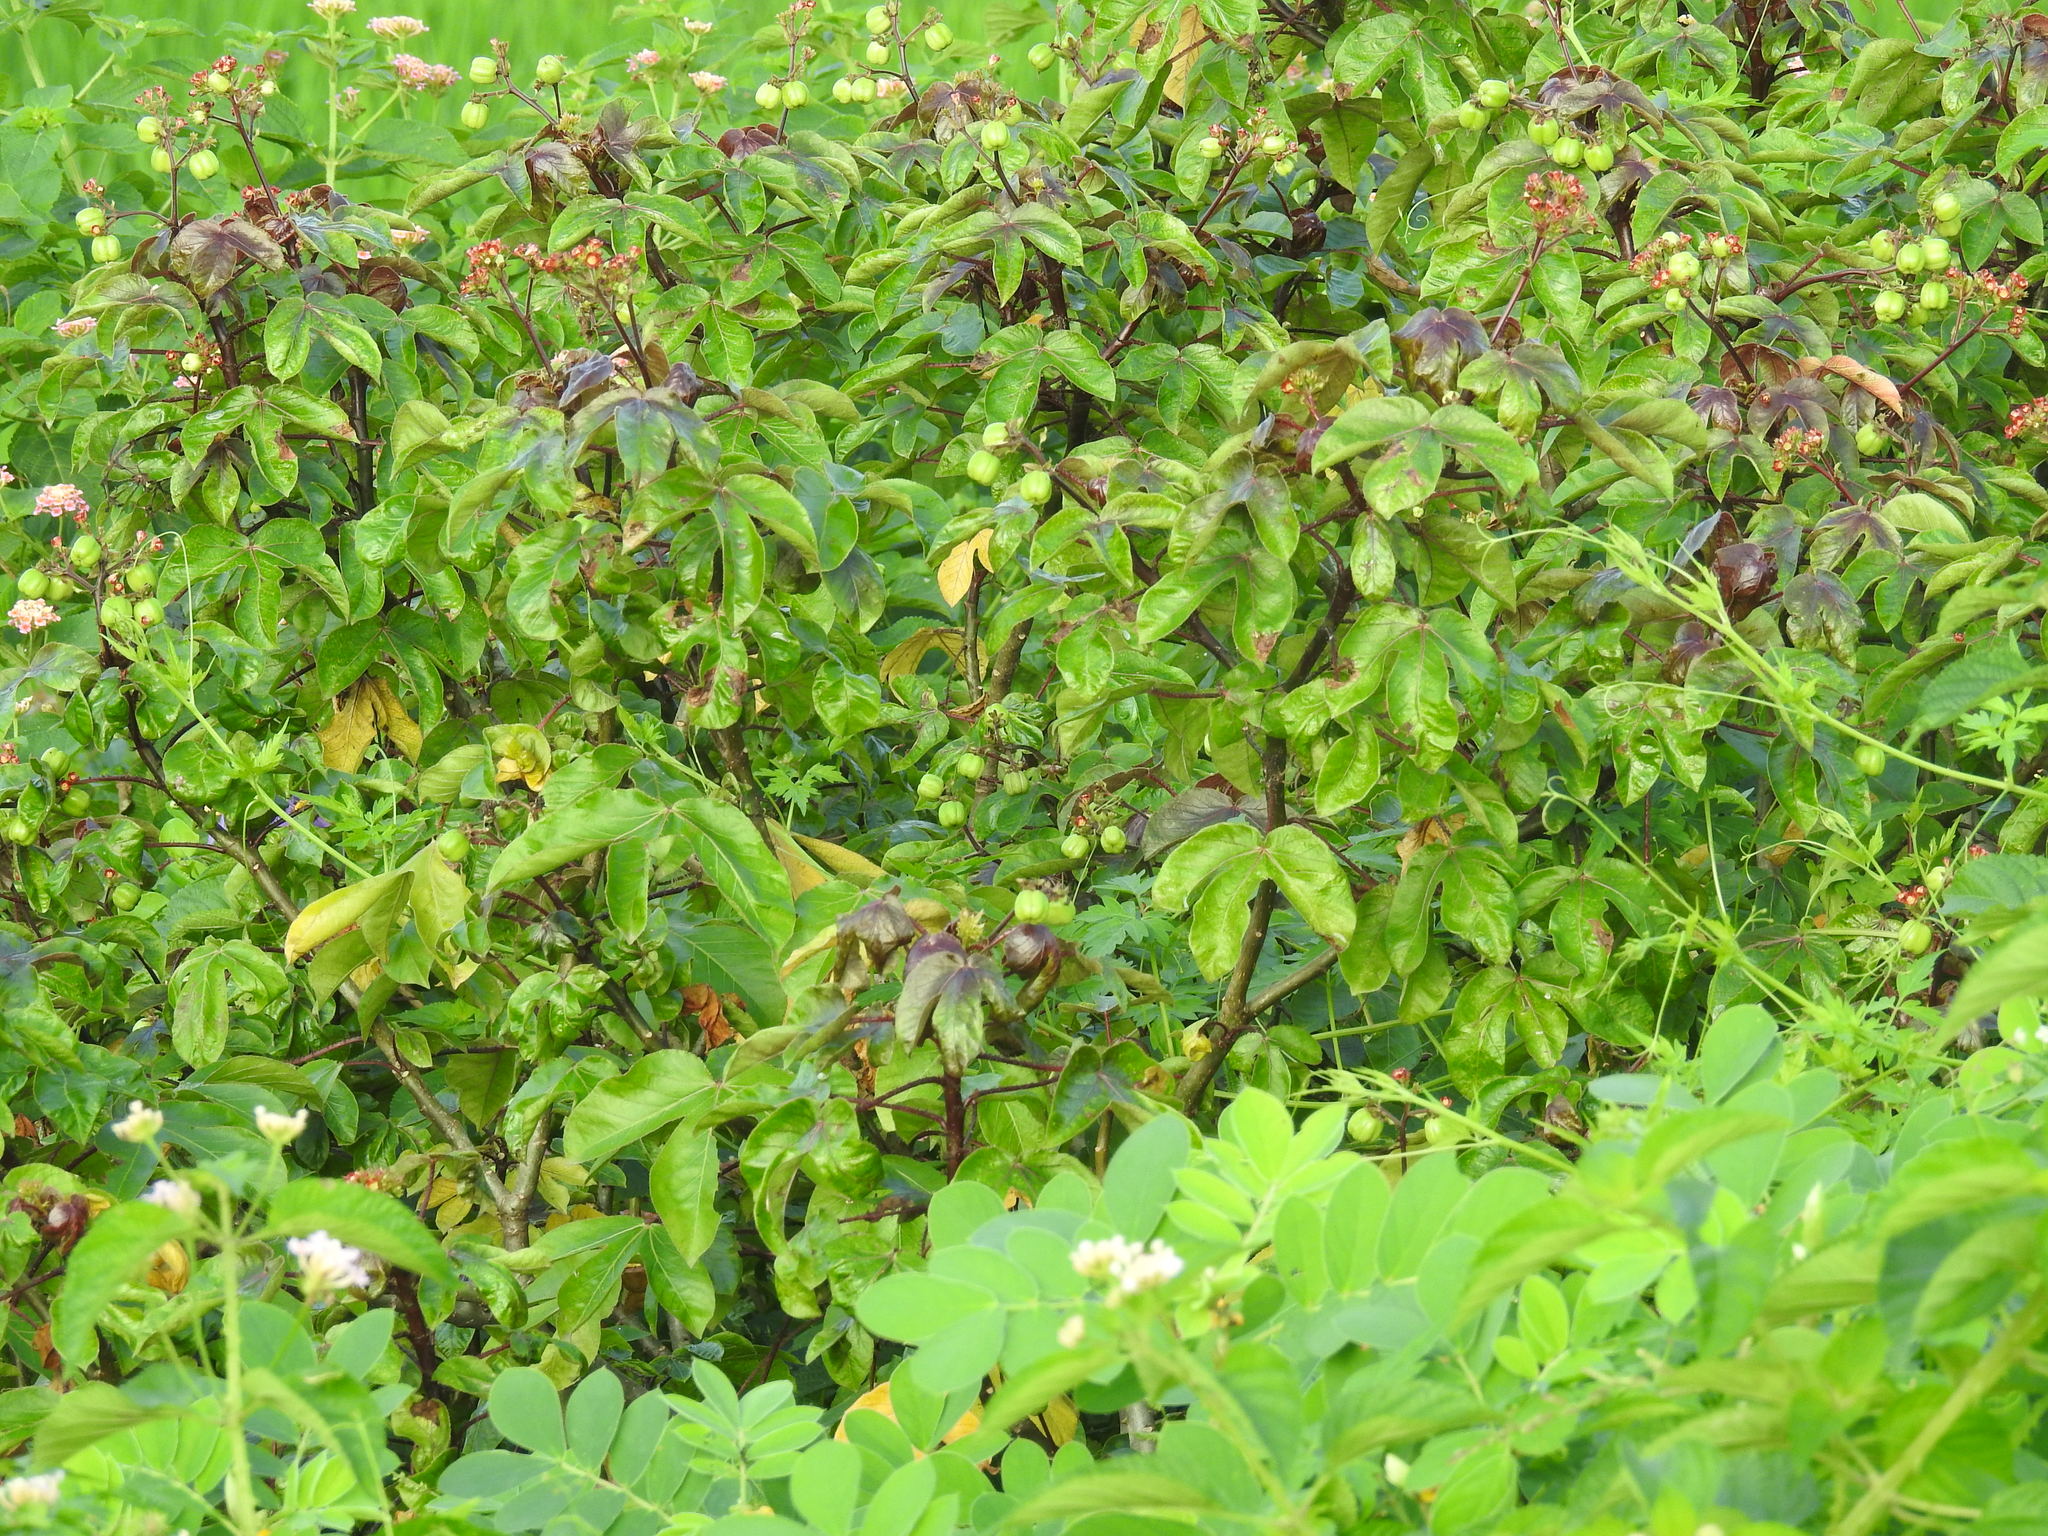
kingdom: Plantae
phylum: Tracheophyta
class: Magnoliopsida
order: Malpighiales
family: Euphorbiaceae
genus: Jatropha
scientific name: Jatropha gossypiifolia
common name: Bellyache bush
